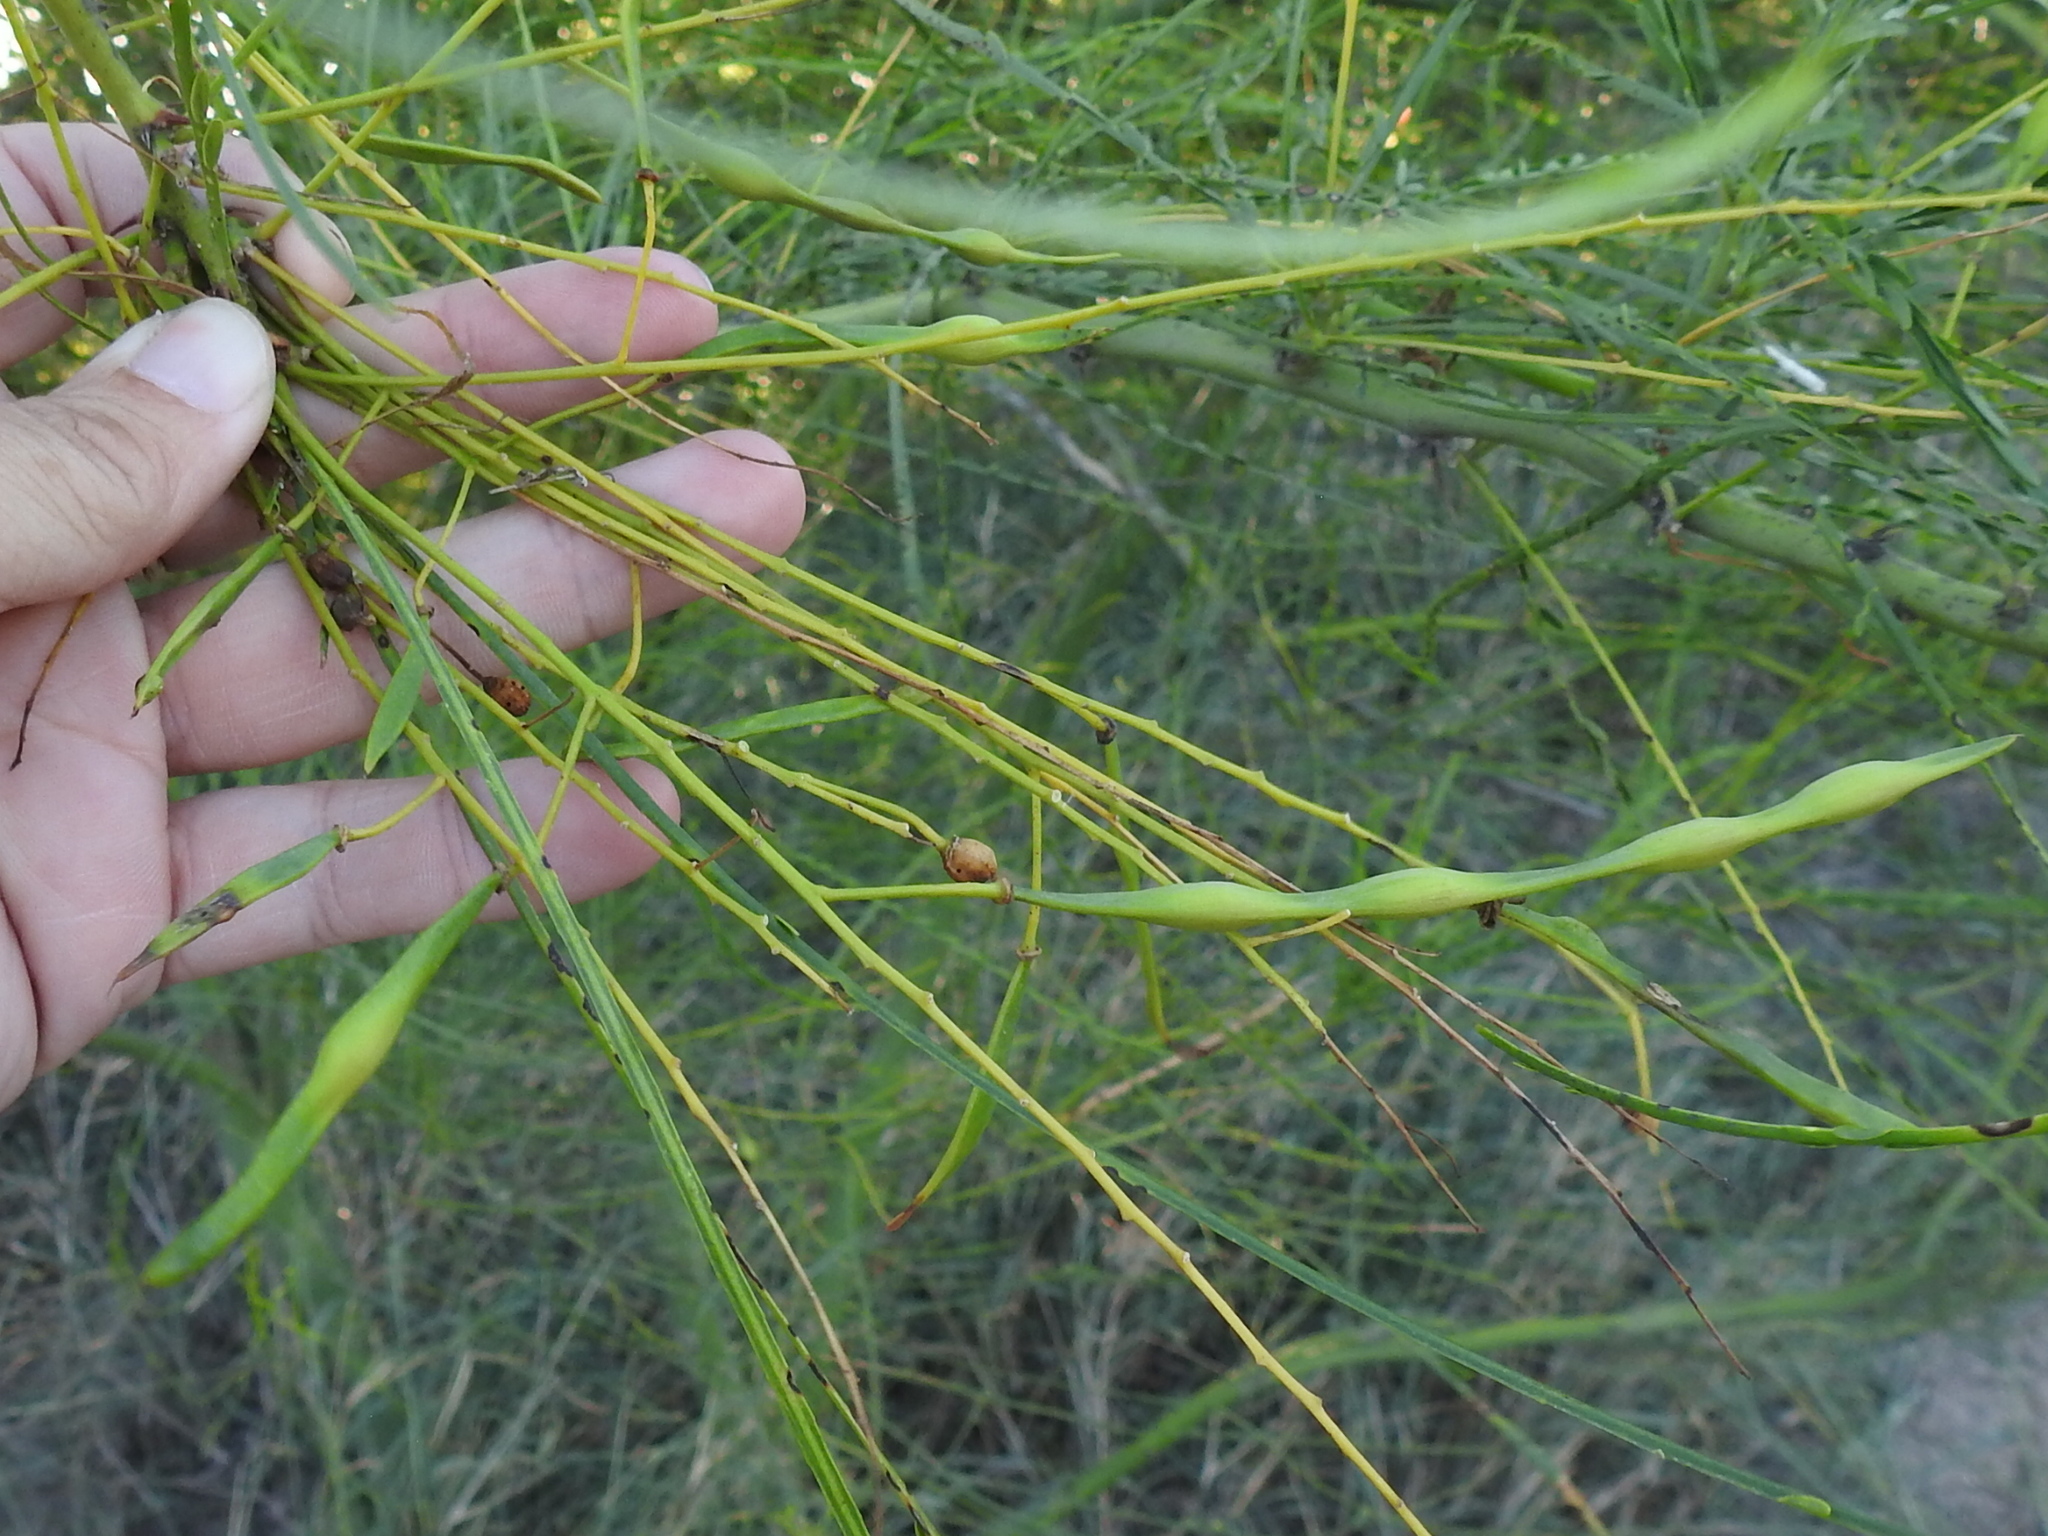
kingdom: Plantae
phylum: Tracheophyta
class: Magnoliopsida
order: Fabales
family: Fabaceae
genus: Parkinsonia
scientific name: Parkinsonia aculeata
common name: Jerusalem thorn
